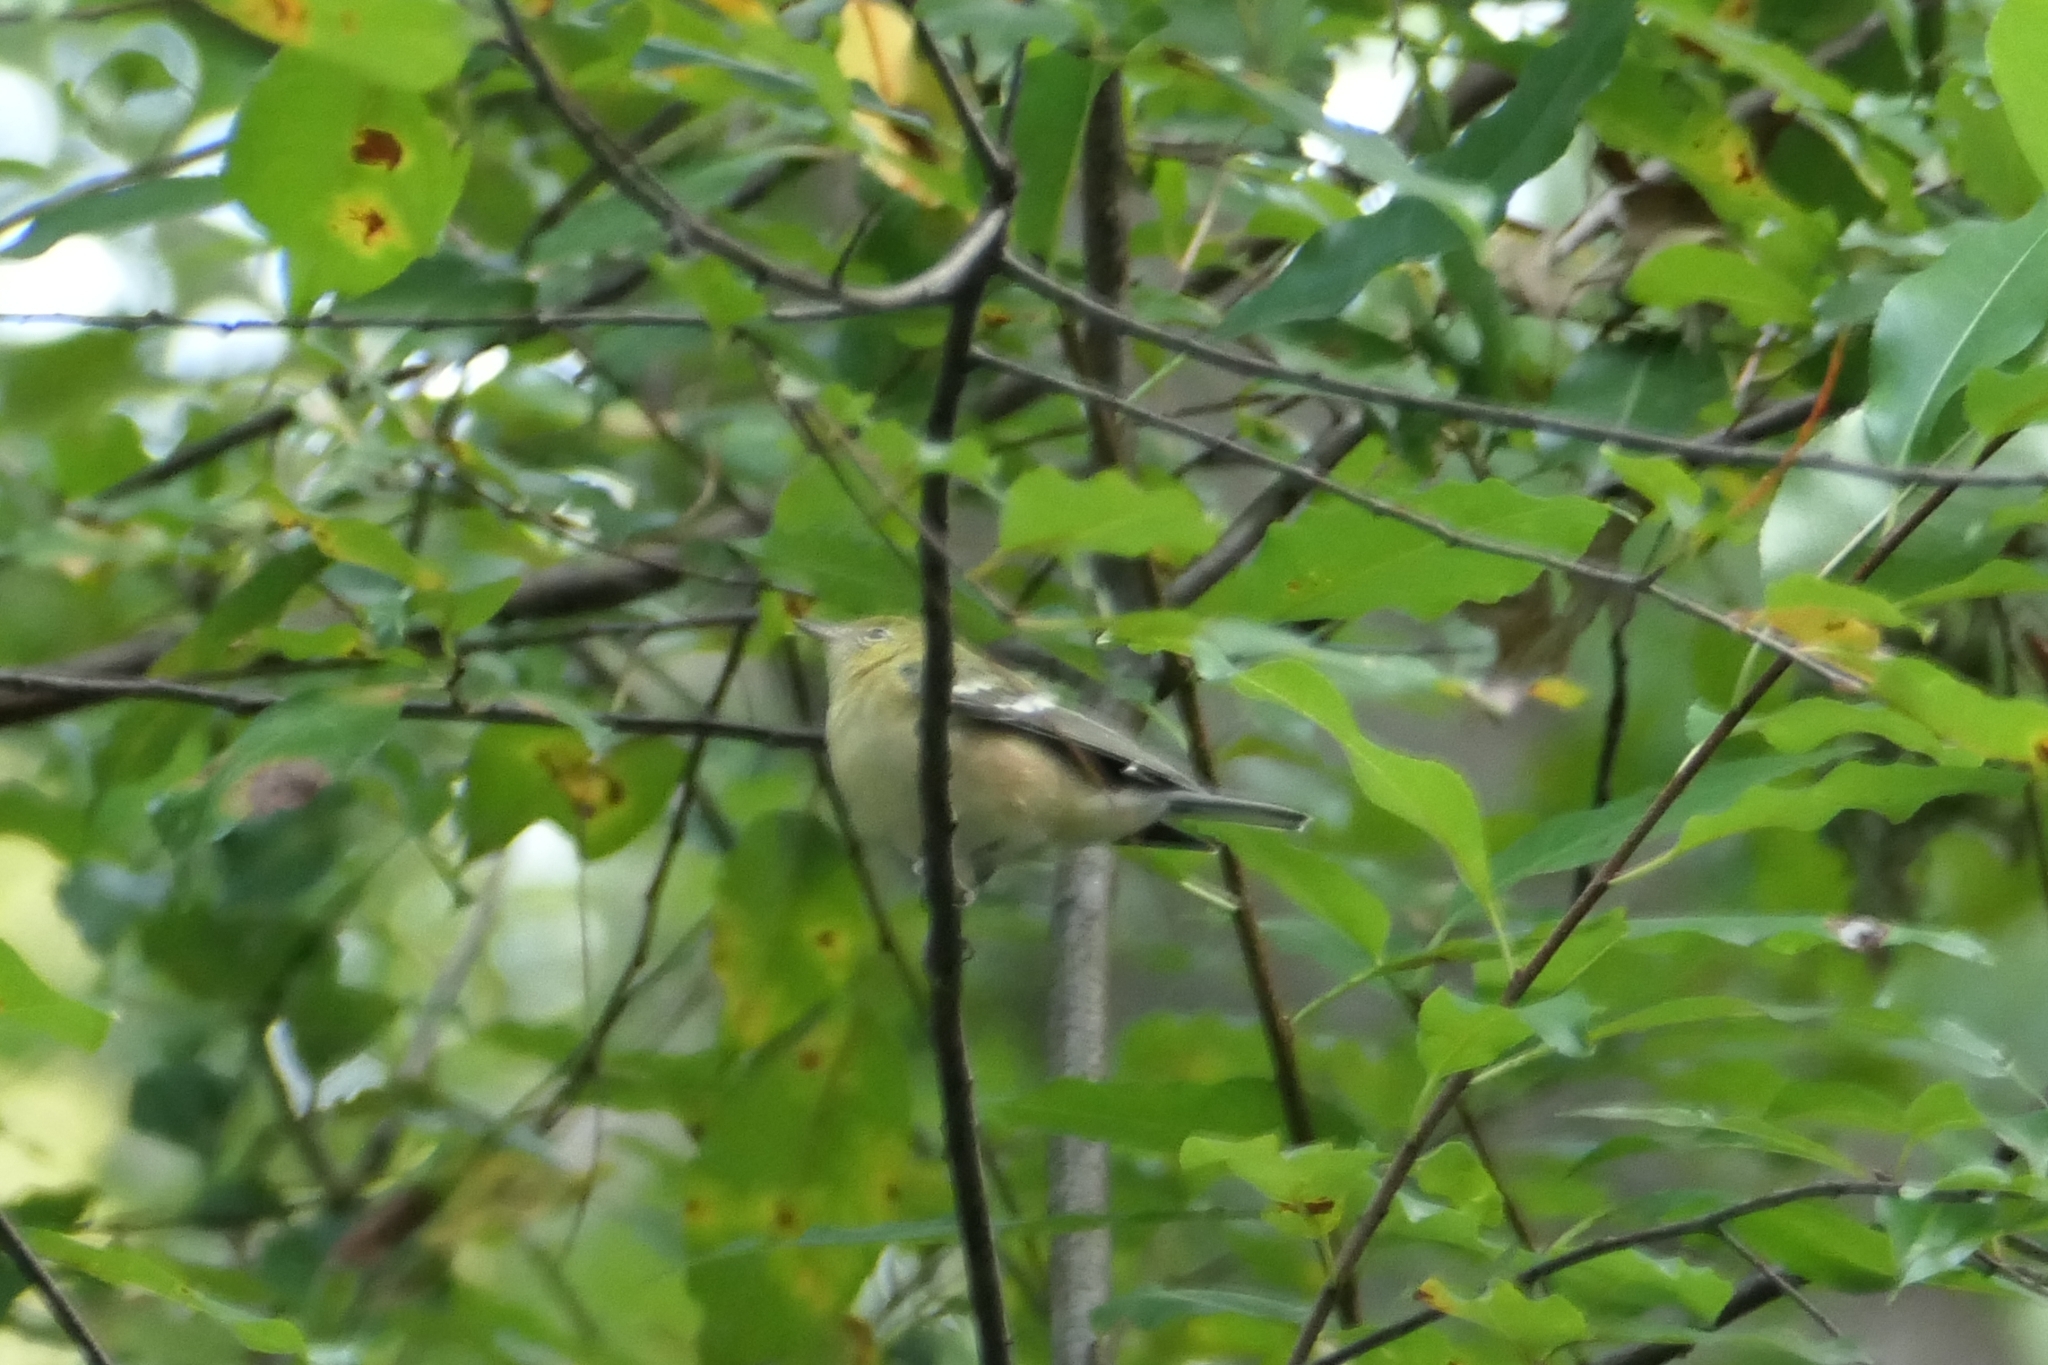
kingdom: Animalia
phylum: Chordata
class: Aves
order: Passeriformes
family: Parulidae
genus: Setophaga
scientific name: Setophaga castanea
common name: Bay-breasted warbler
